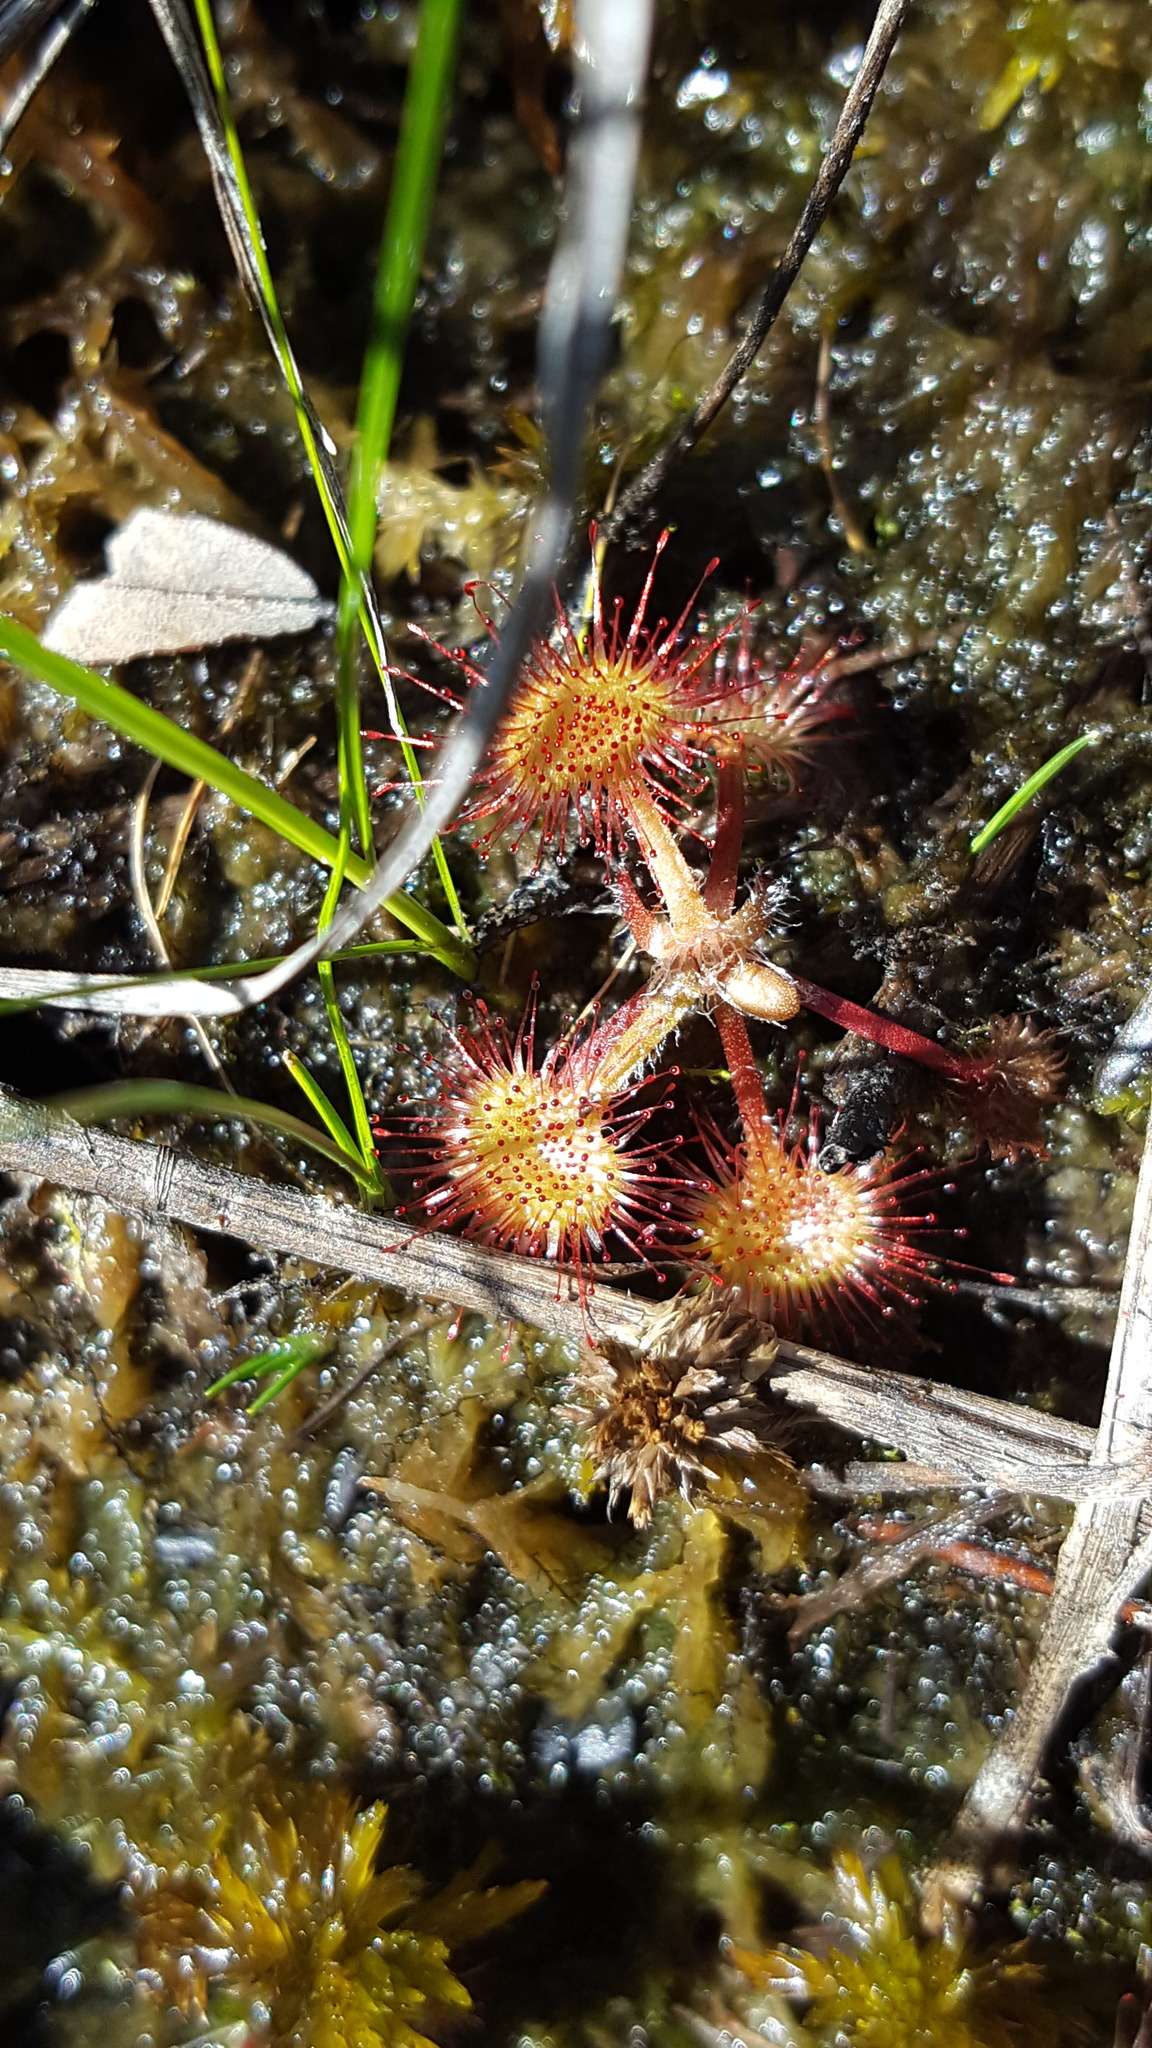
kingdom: Plantae
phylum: Tracheophyta
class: Magnoliopsida
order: Caryophyllales
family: Droseraceae
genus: Drosera
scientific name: Drosera rotundifolia
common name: Round-leaved sundew
